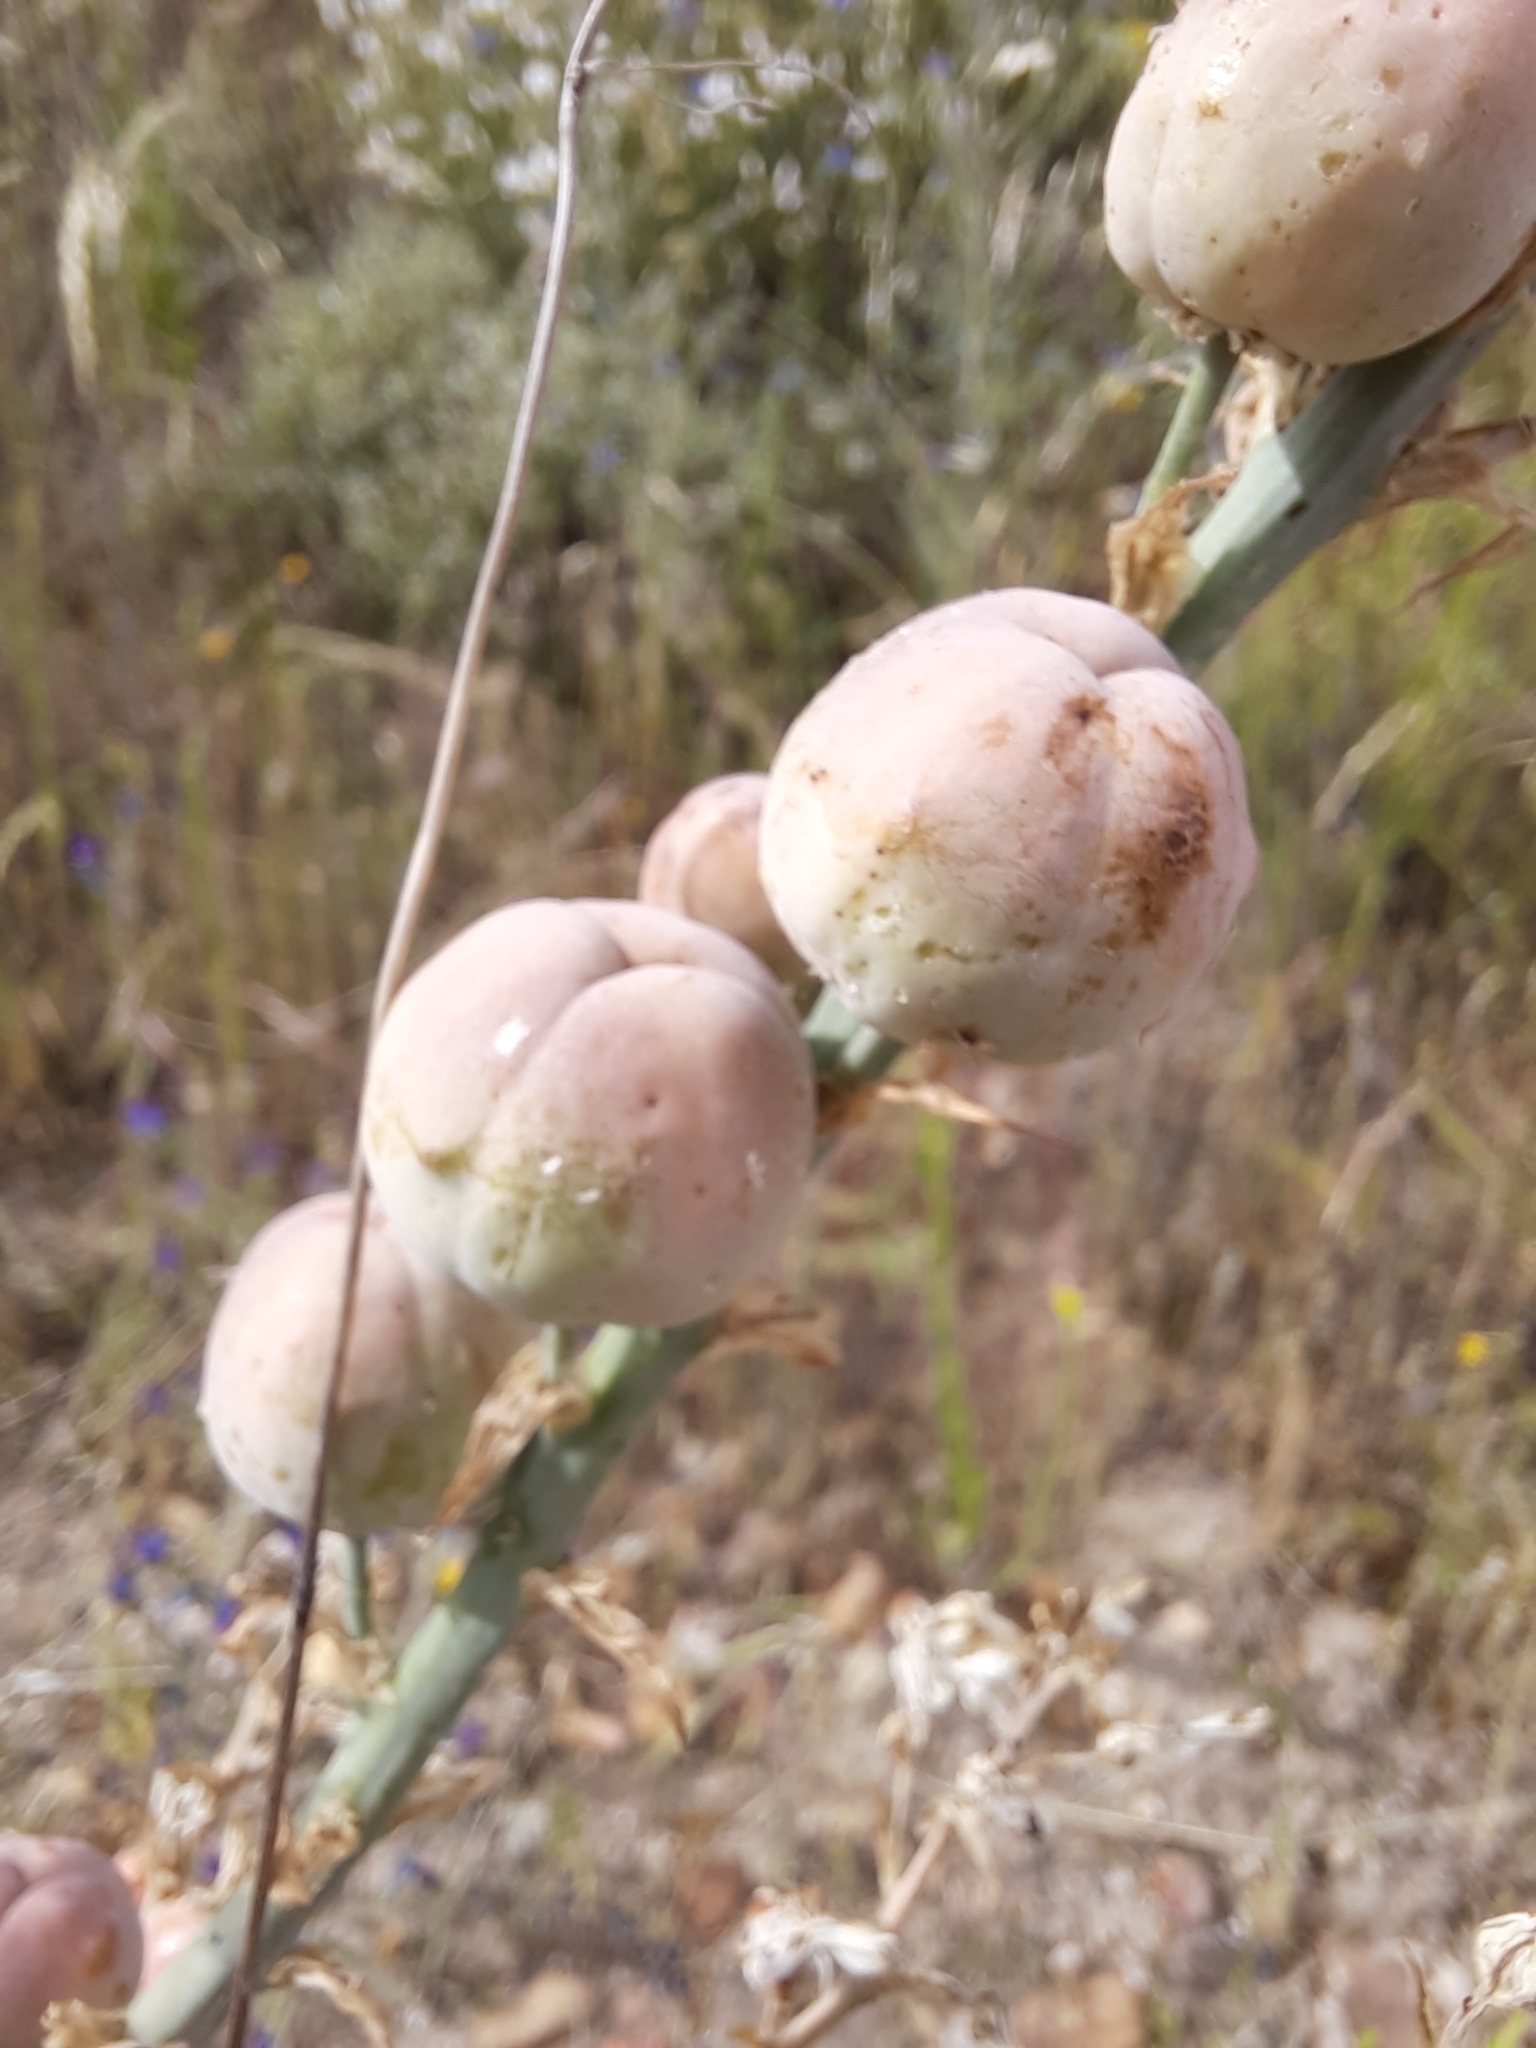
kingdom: Plantae
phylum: Tracheophyta
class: Liliopsida
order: Asparagales
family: Asphodelaceae
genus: Asphodelus
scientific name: Asphodelus cerasifer
